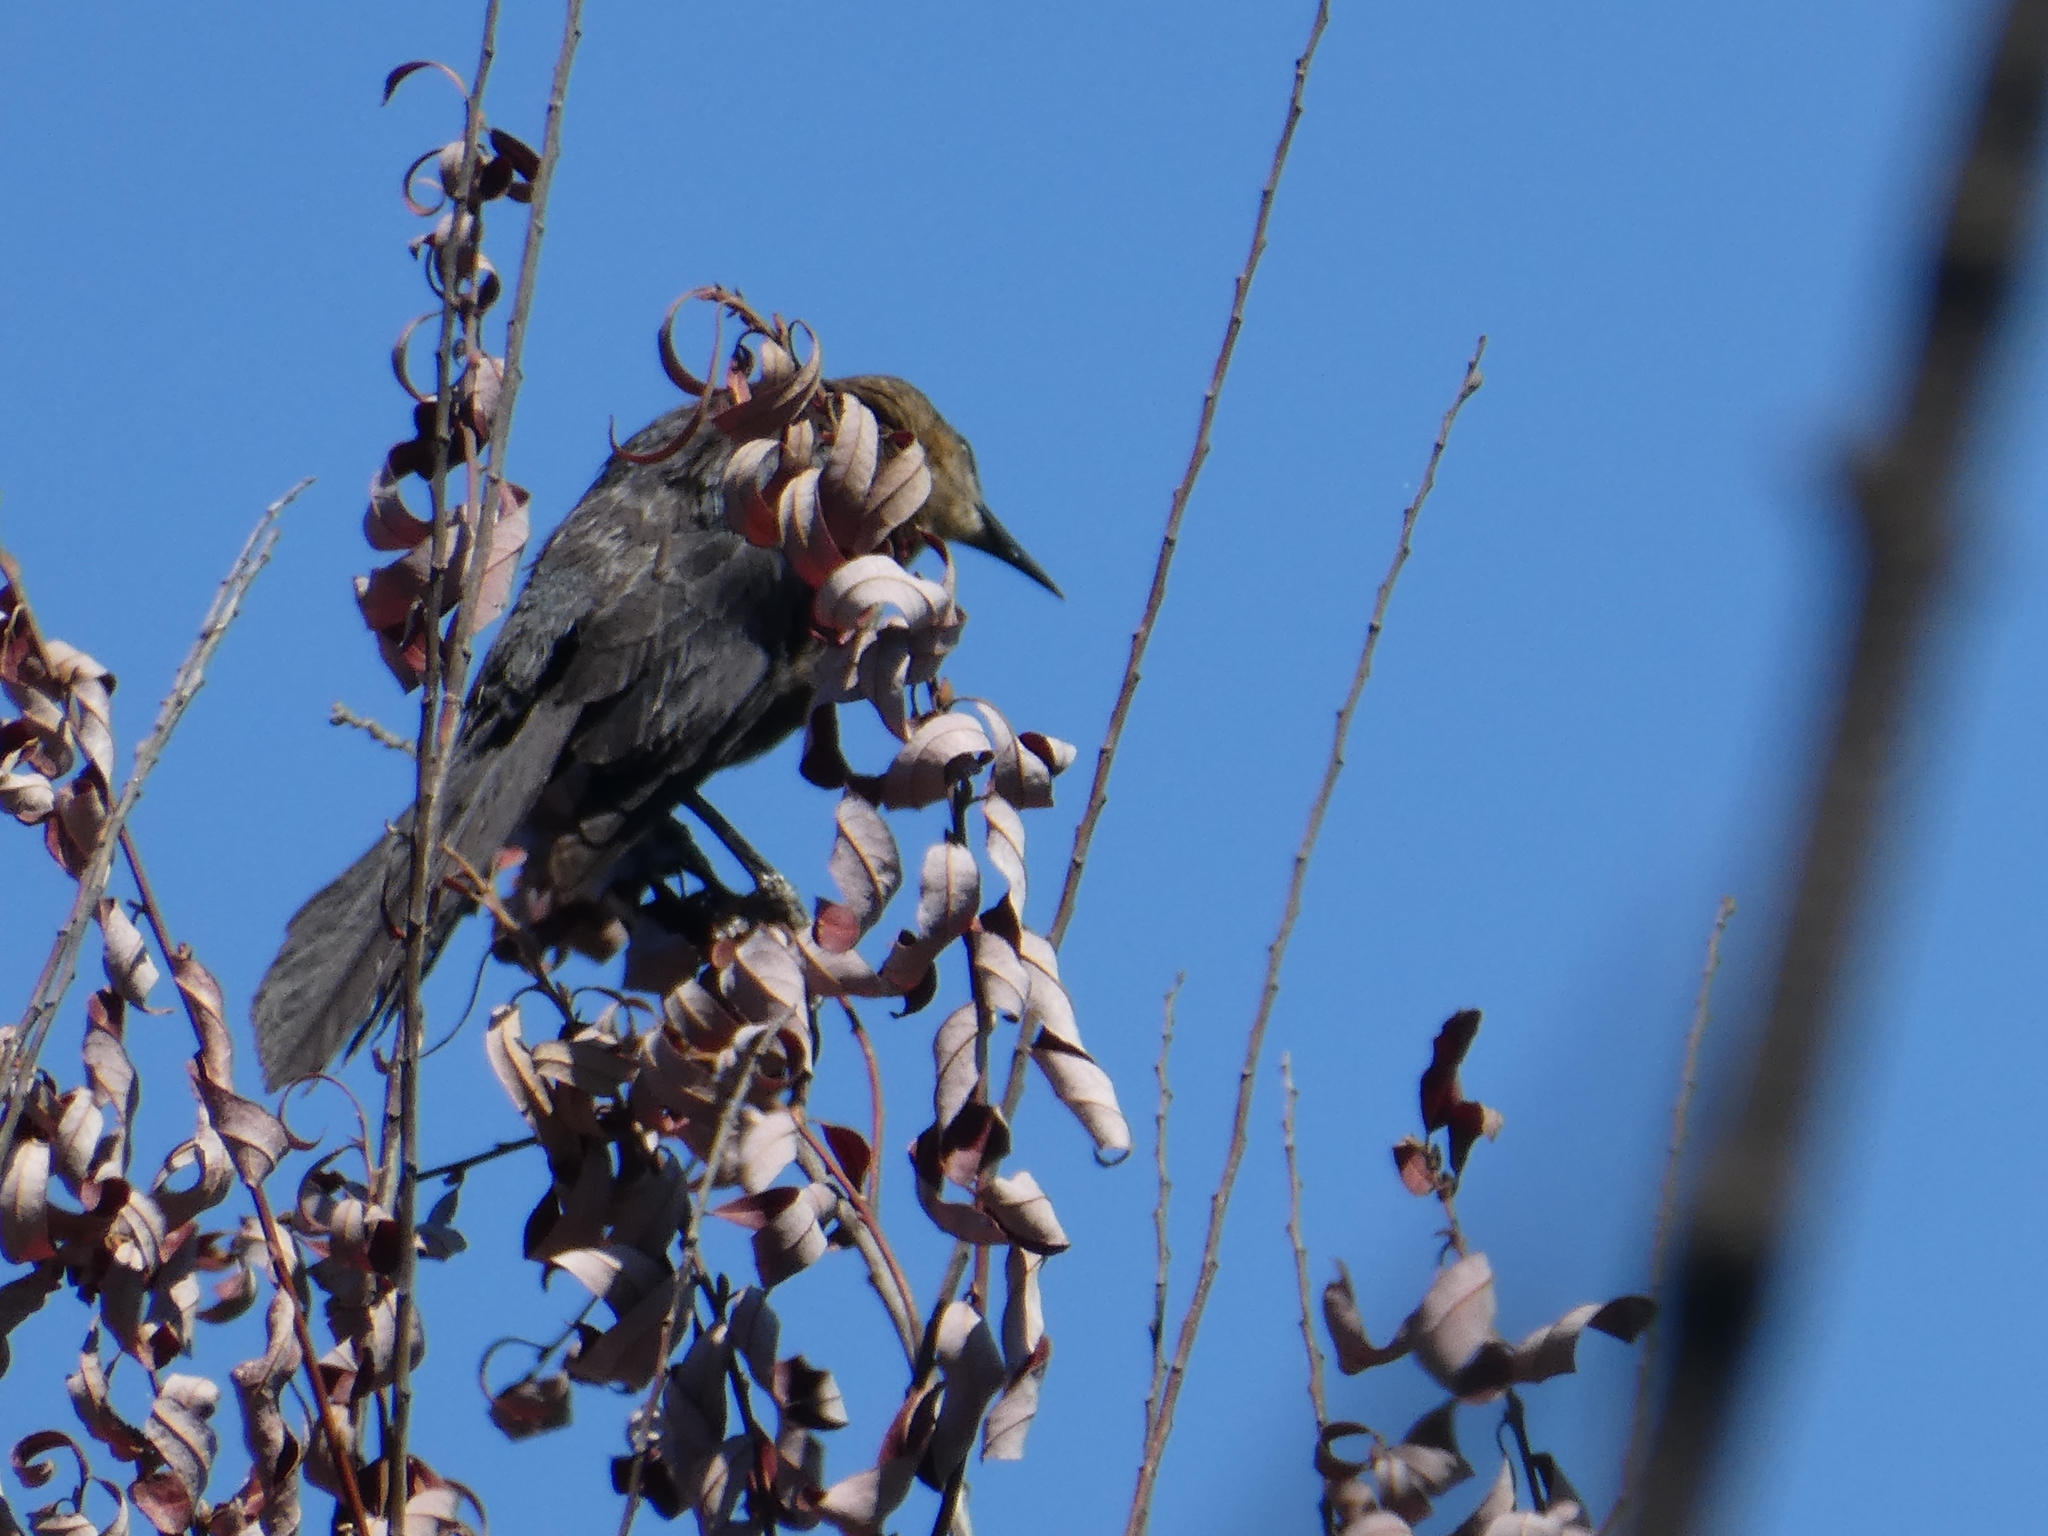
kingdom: Animalia
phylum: Chordata
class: Aves
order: Passeriformes
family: Icteridae
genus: Quiscalus
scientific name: Quiscalus mexicanus
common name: Great-tailed grackle
